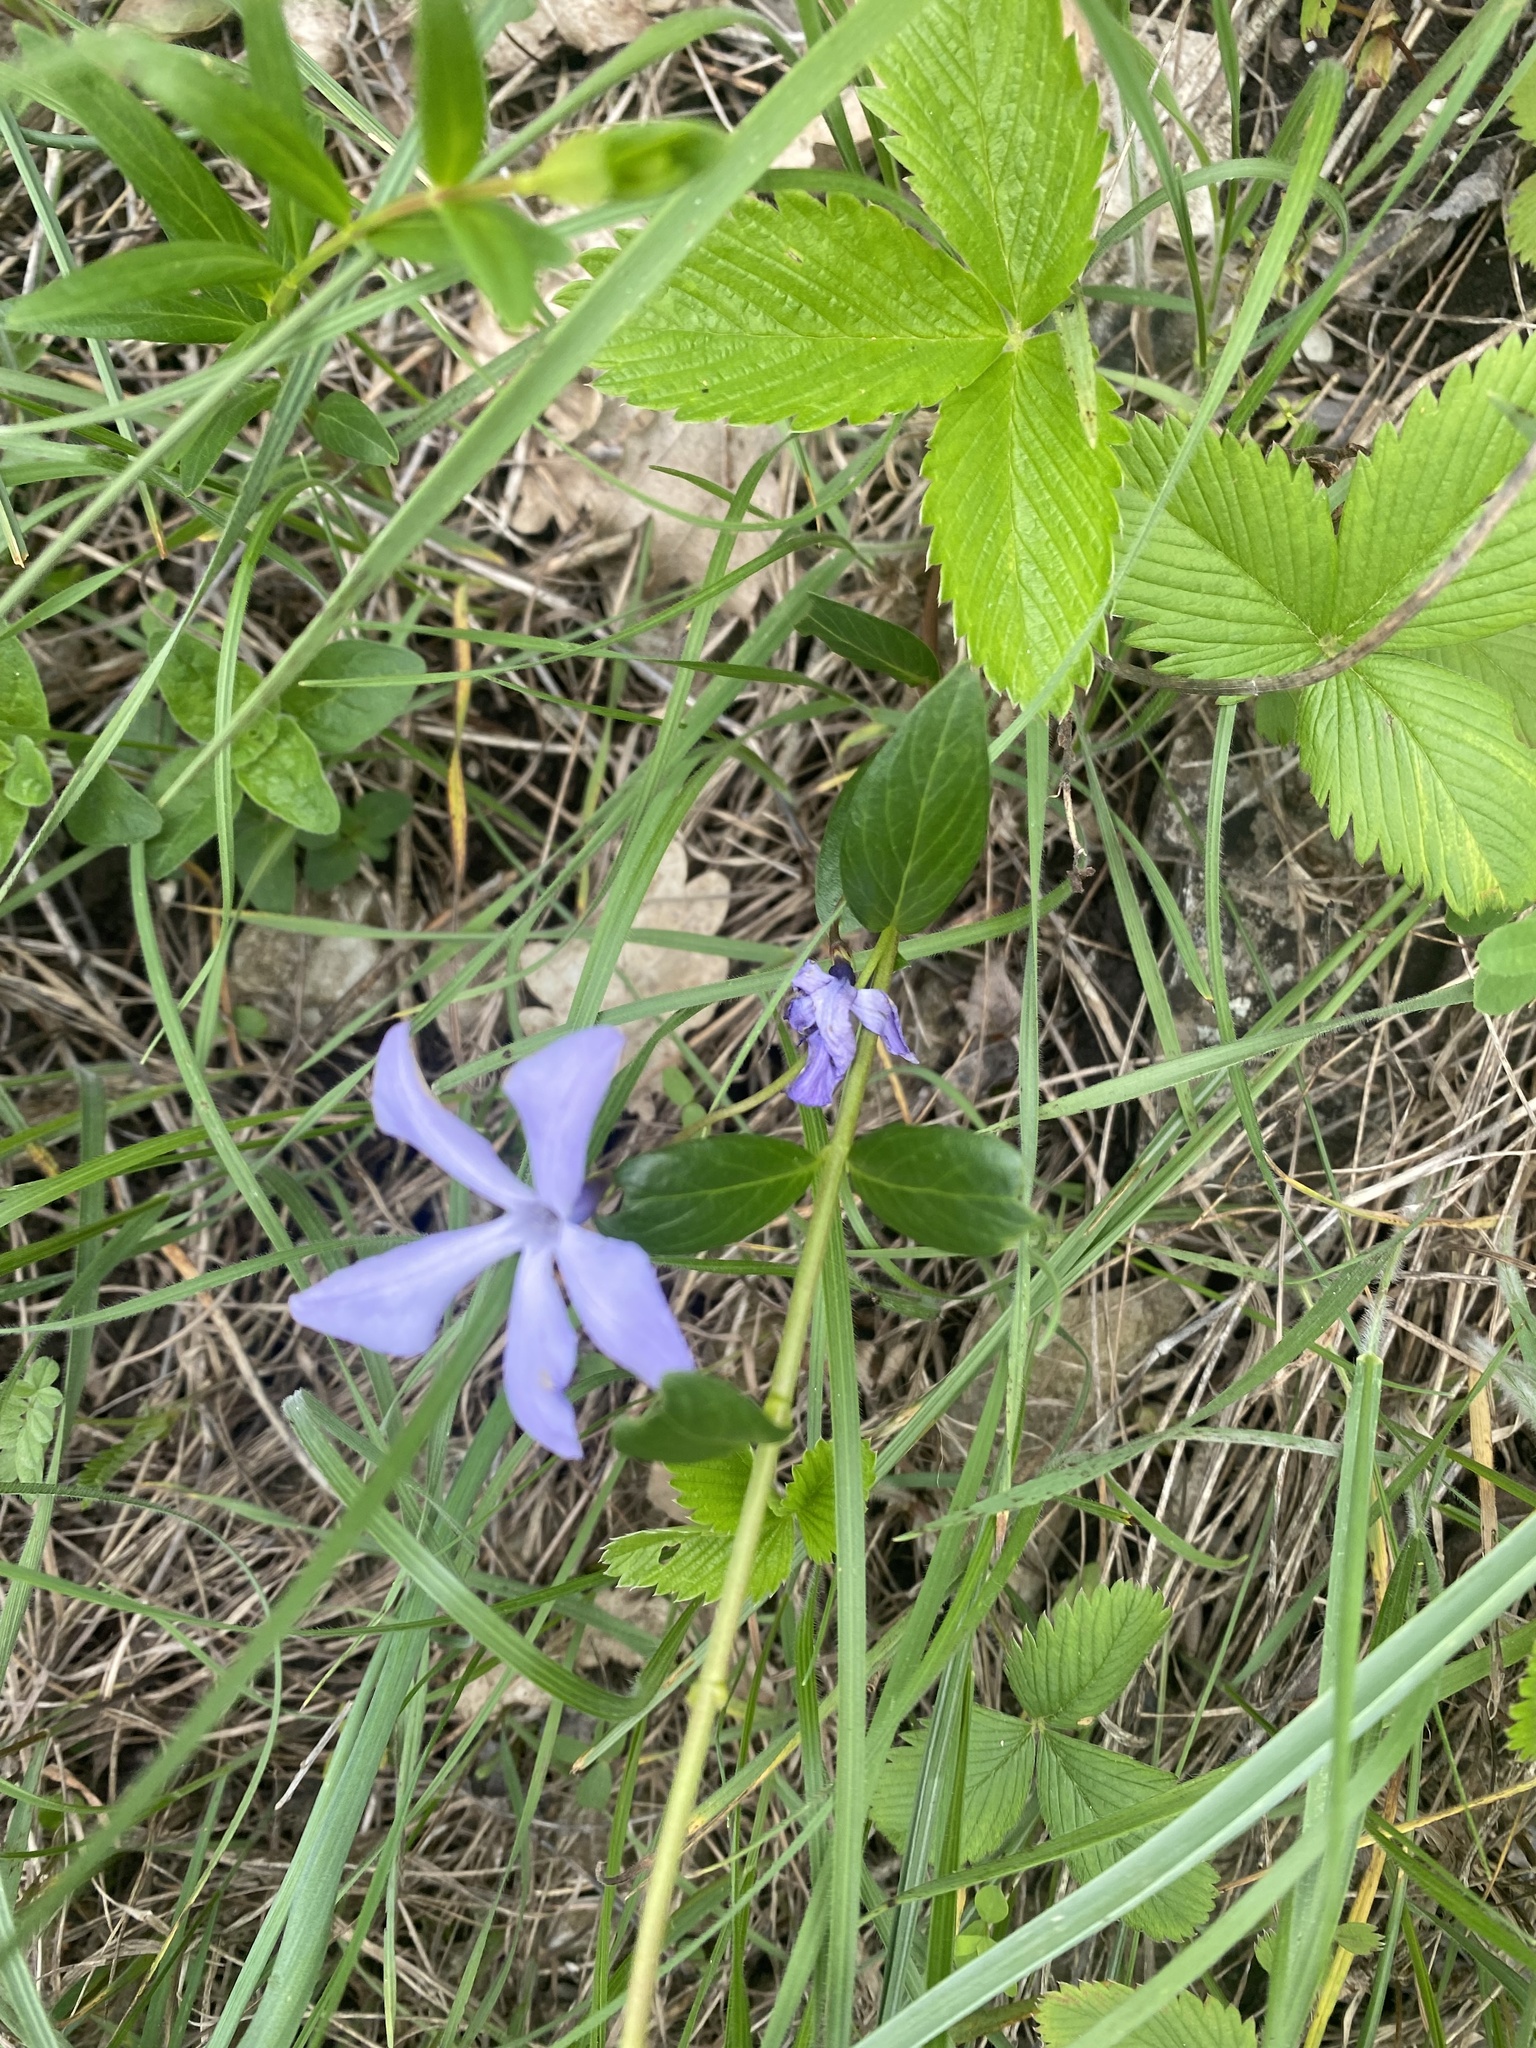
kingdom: Plantae
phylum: Tracheophyta
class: Magnoliopsida
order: Gentianales
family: Apocynaceae
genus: Vinca
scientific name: Vinca herbacea
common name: Herbaceous periwinkle
